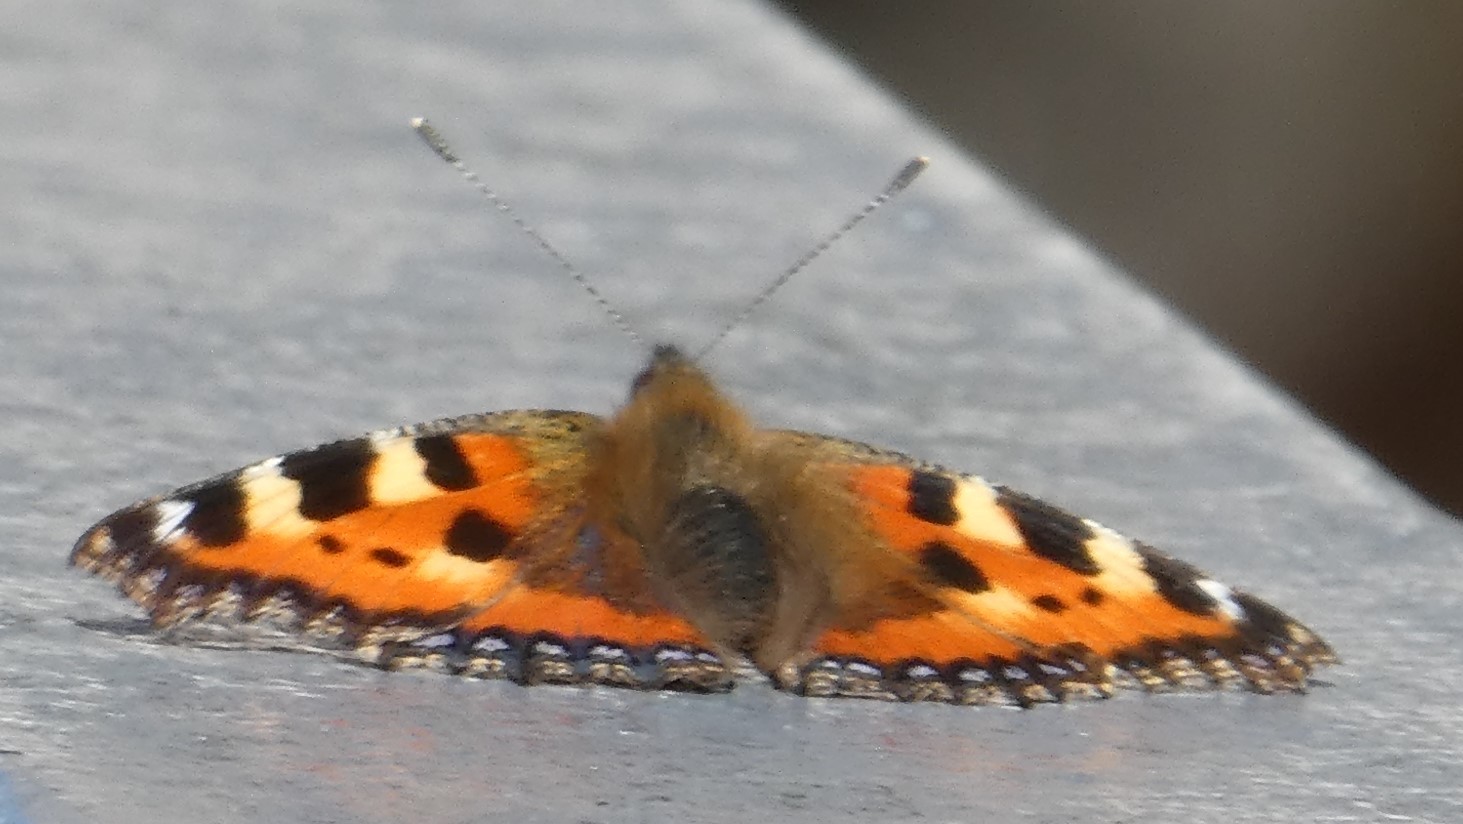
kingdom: Animalia
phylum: Arthropoda
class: Insecta
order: Lepidoptera
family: Nymphalidae
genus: Aglais
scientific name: Aglais urticae
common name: Small tortoiseshell
